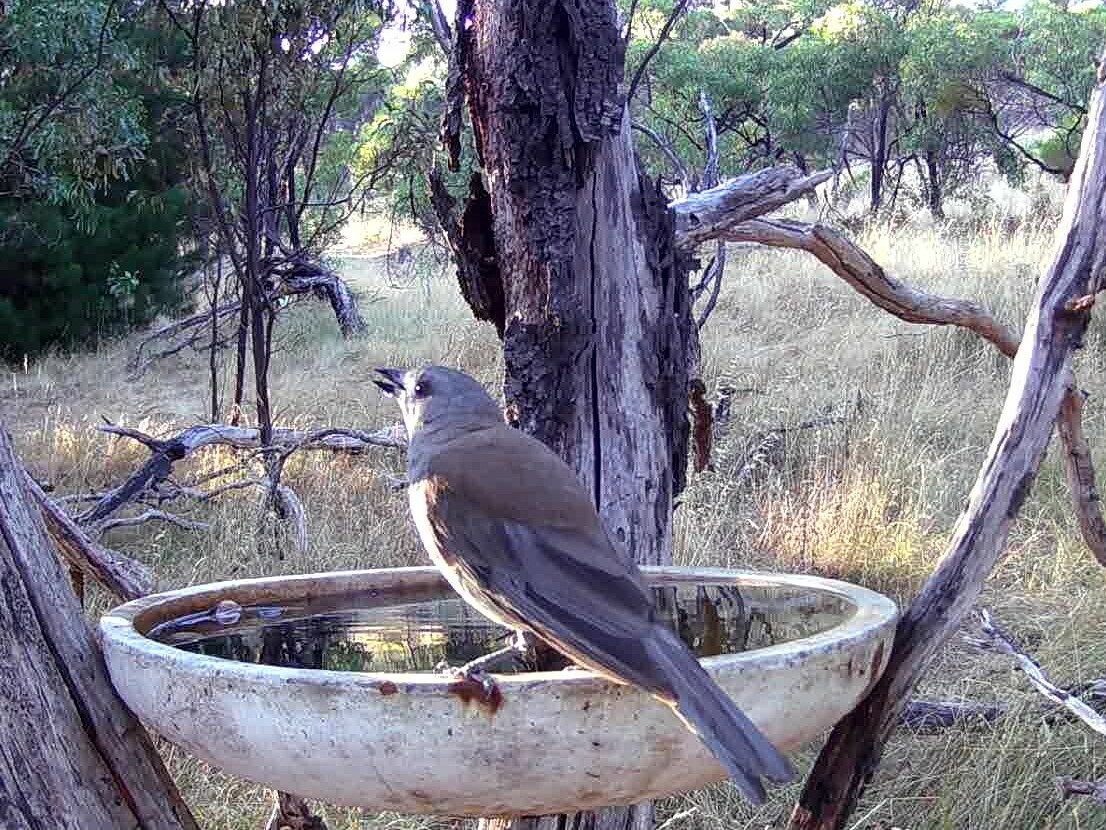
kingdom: Animalia
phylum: Chordata
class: Aves
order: Passeriformes
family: Pachycephalidae
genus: Colluricincla
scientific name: Colluricincla harmonica
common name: Grey shrikethrush
